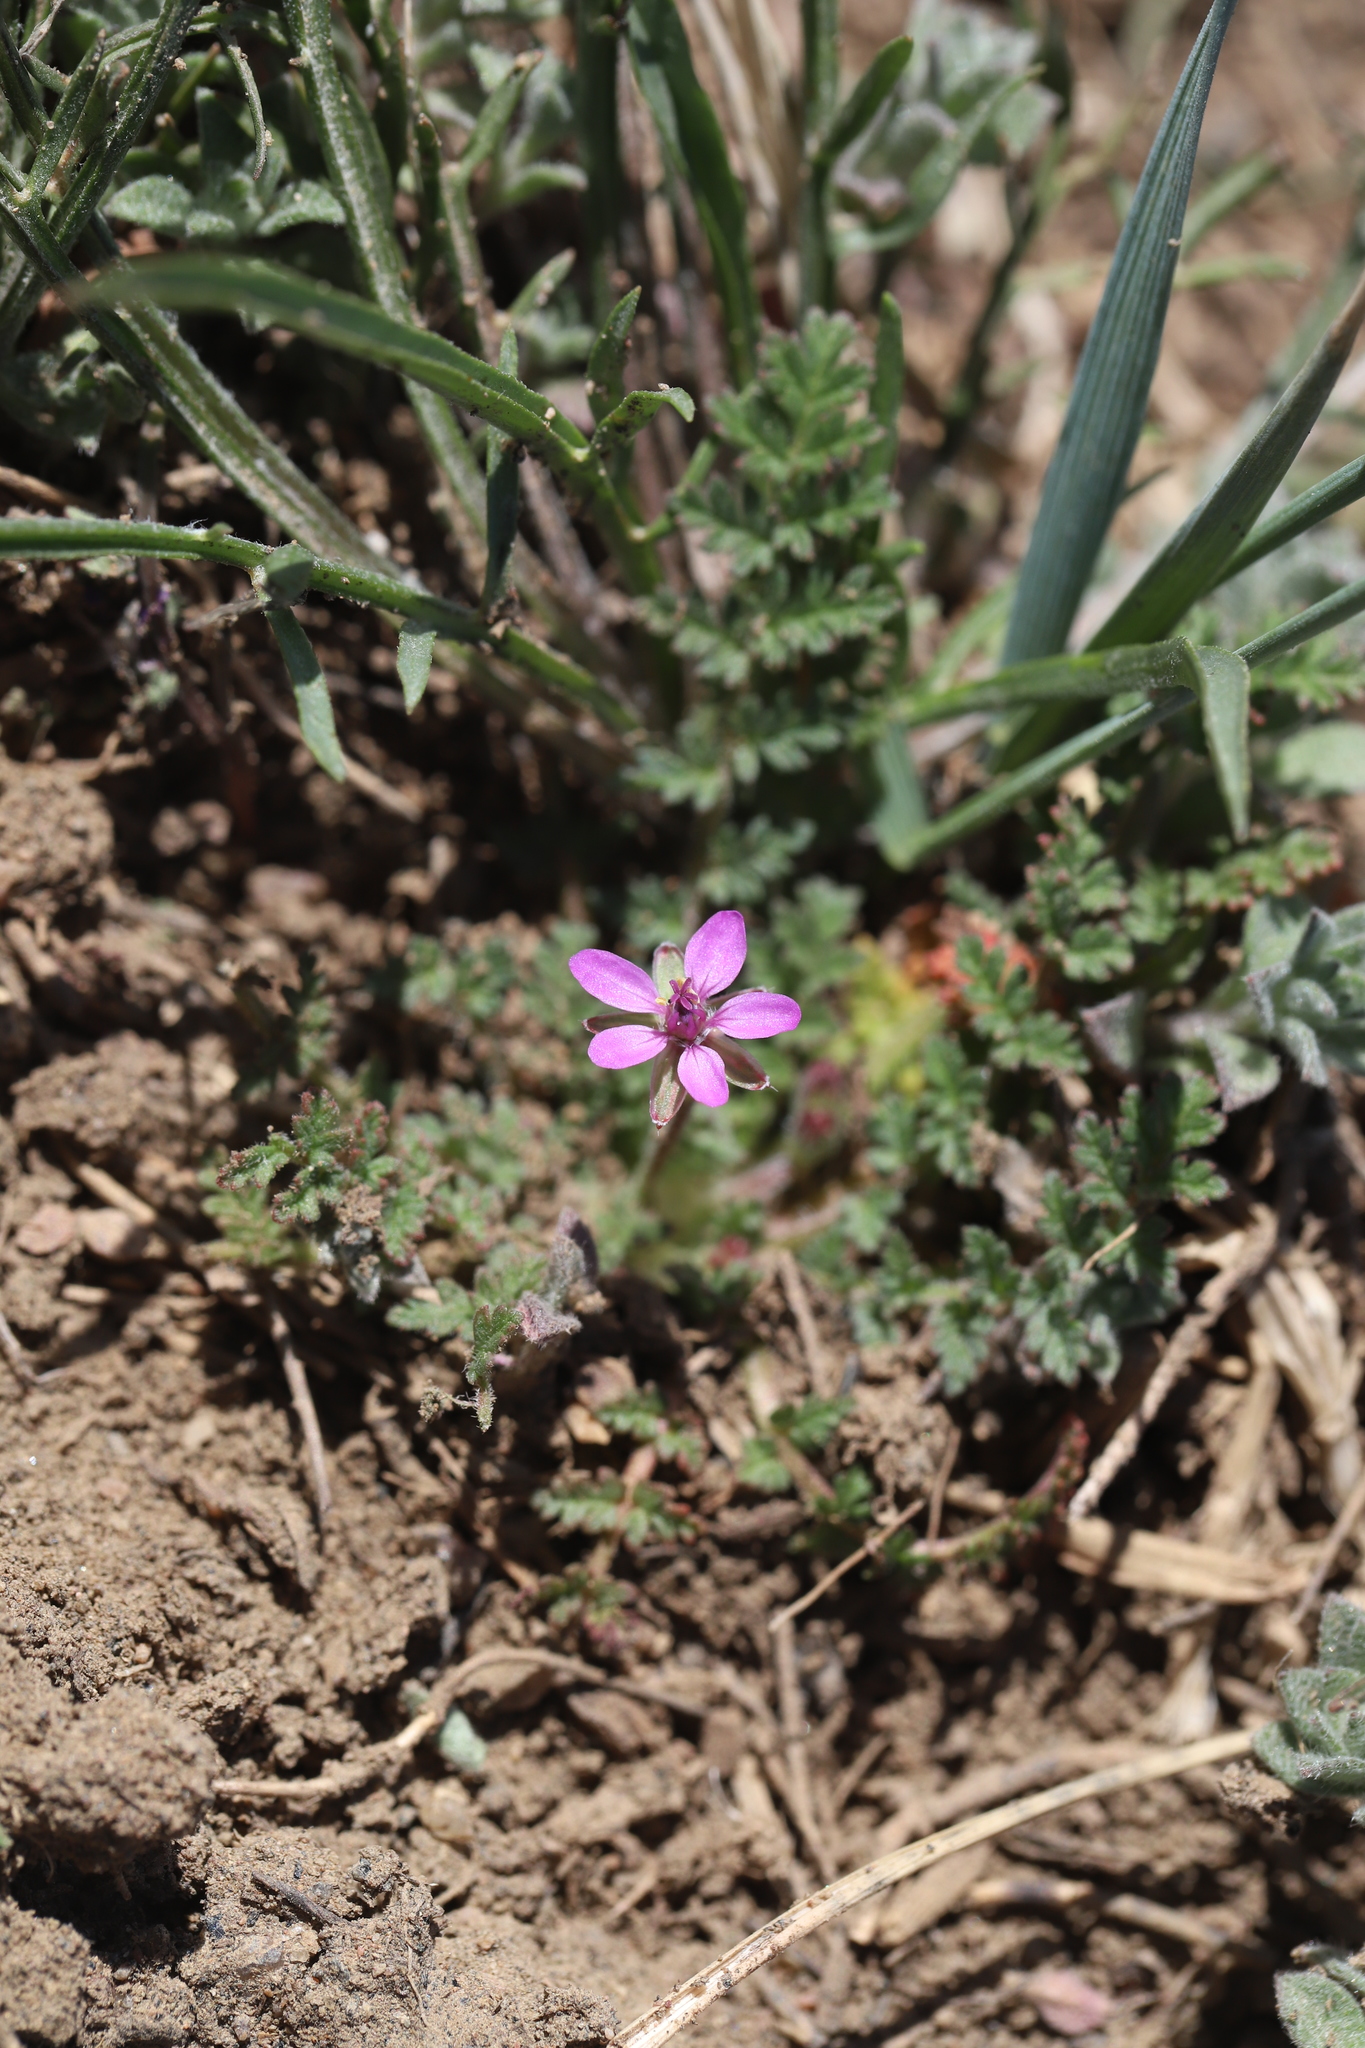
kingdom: Plantae
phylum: Tracheophyta
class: Magnoliopsida
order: Geraniales
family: Geraniaceae
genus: Erodium
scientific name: Erodium cicutarium
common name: Common stork's-bill
